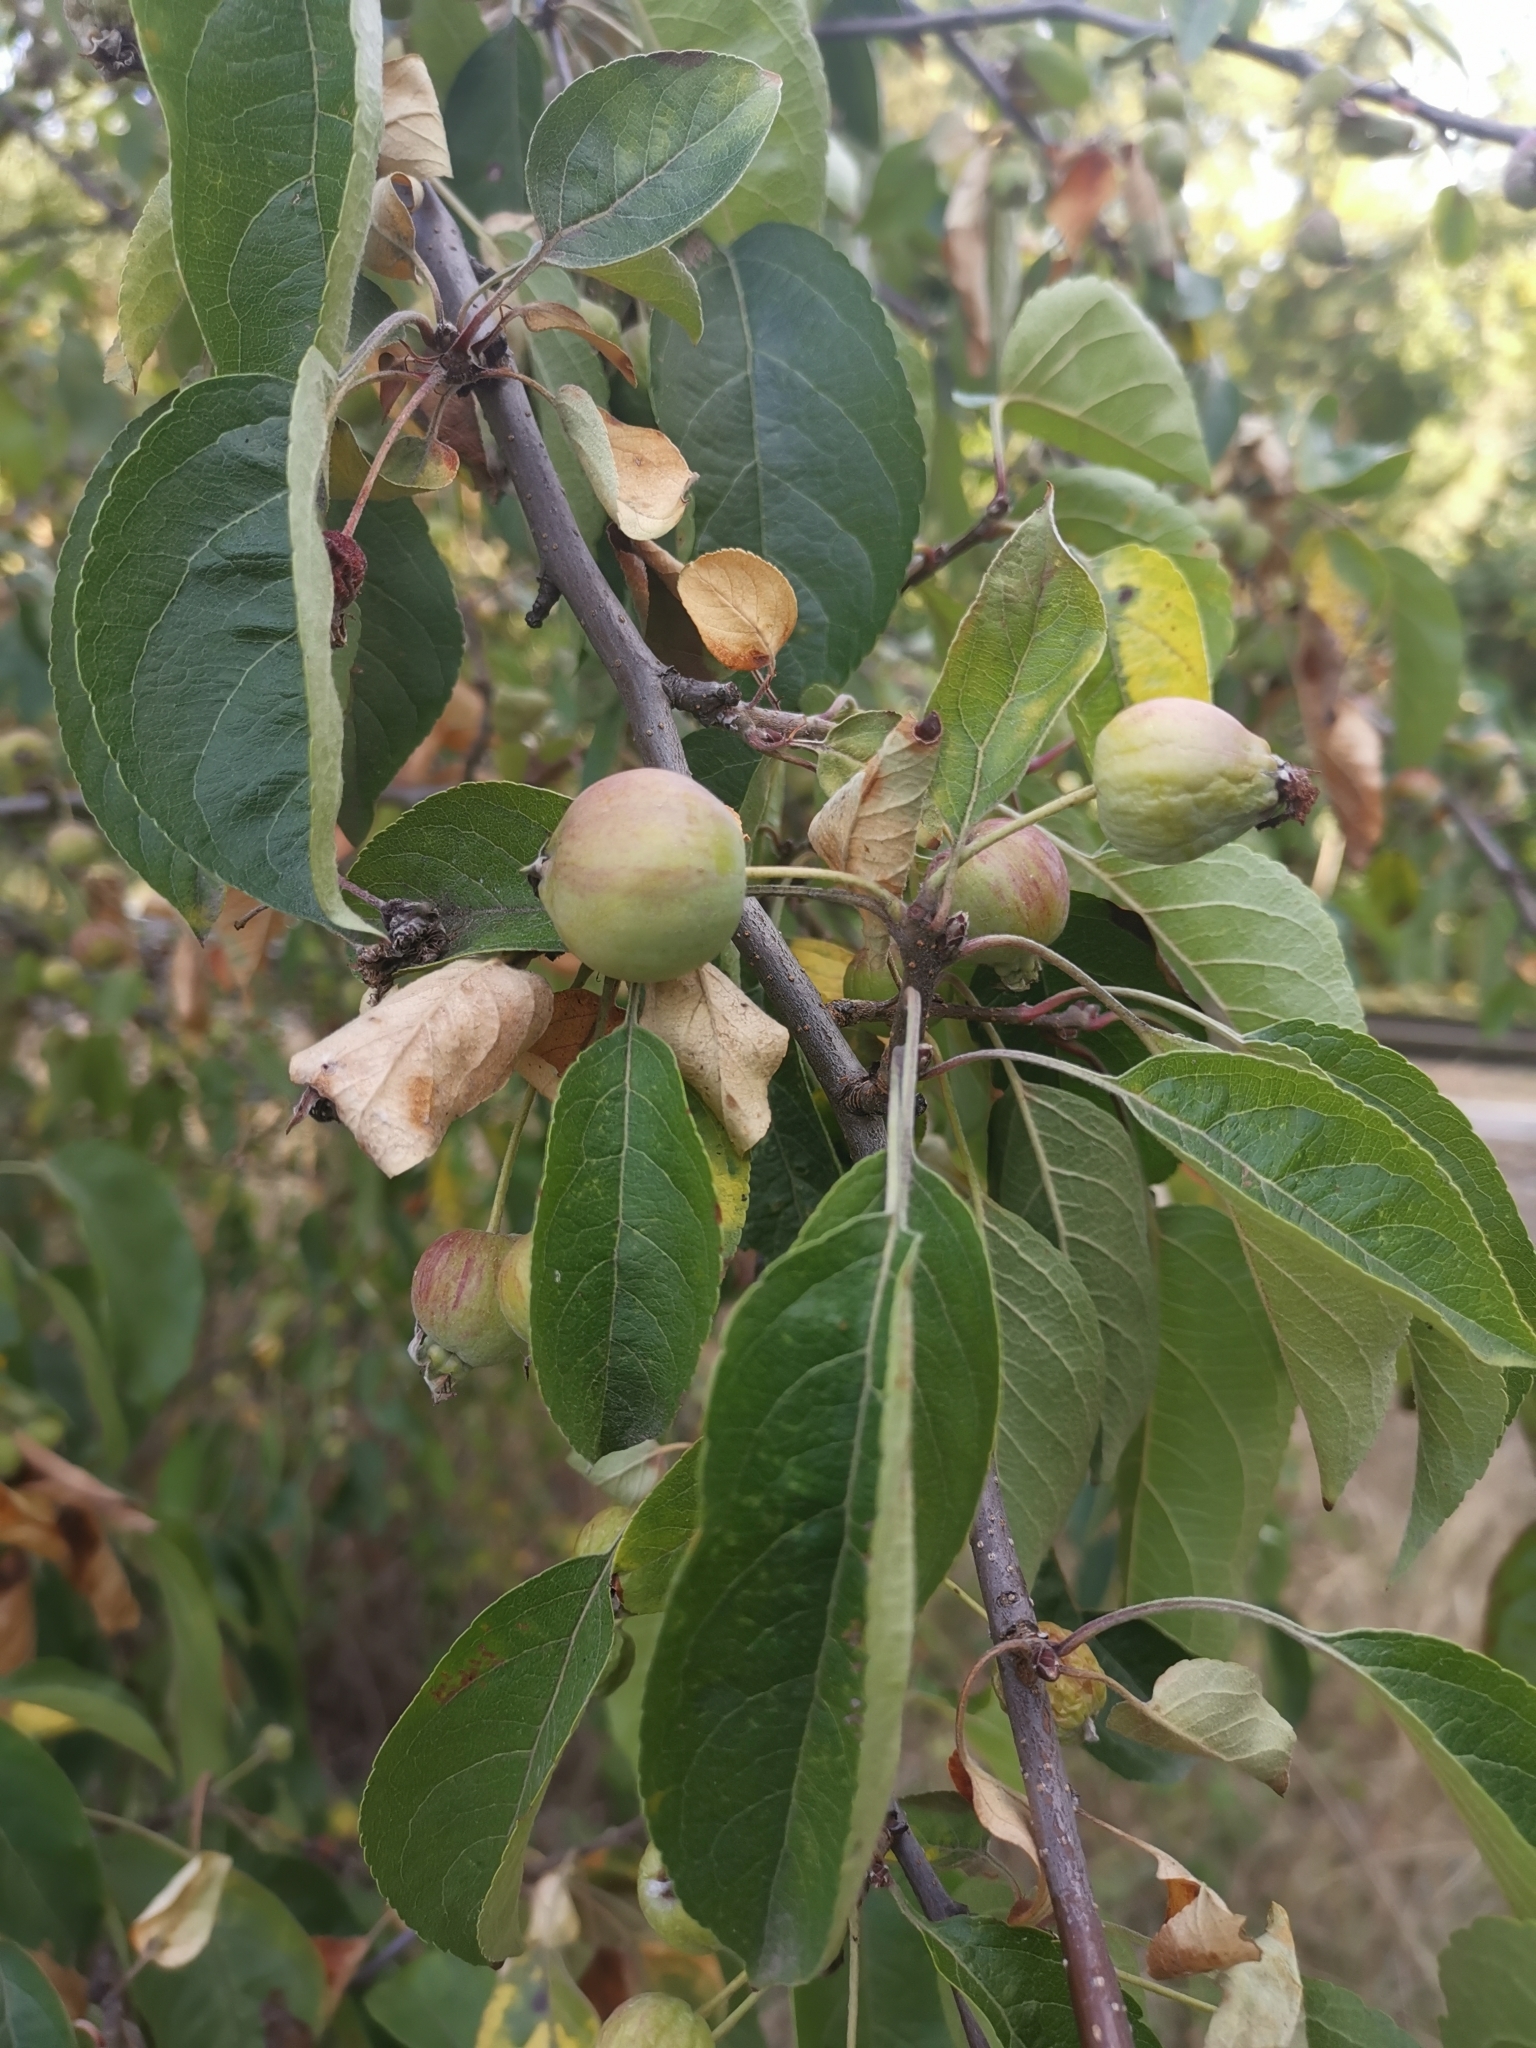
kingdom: Plantae
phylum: Tracheophyta
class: Magnoliopsida
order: Rosales
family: Rosaceae
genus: Malus
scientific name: Malus sylvestris
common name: Crab apple
